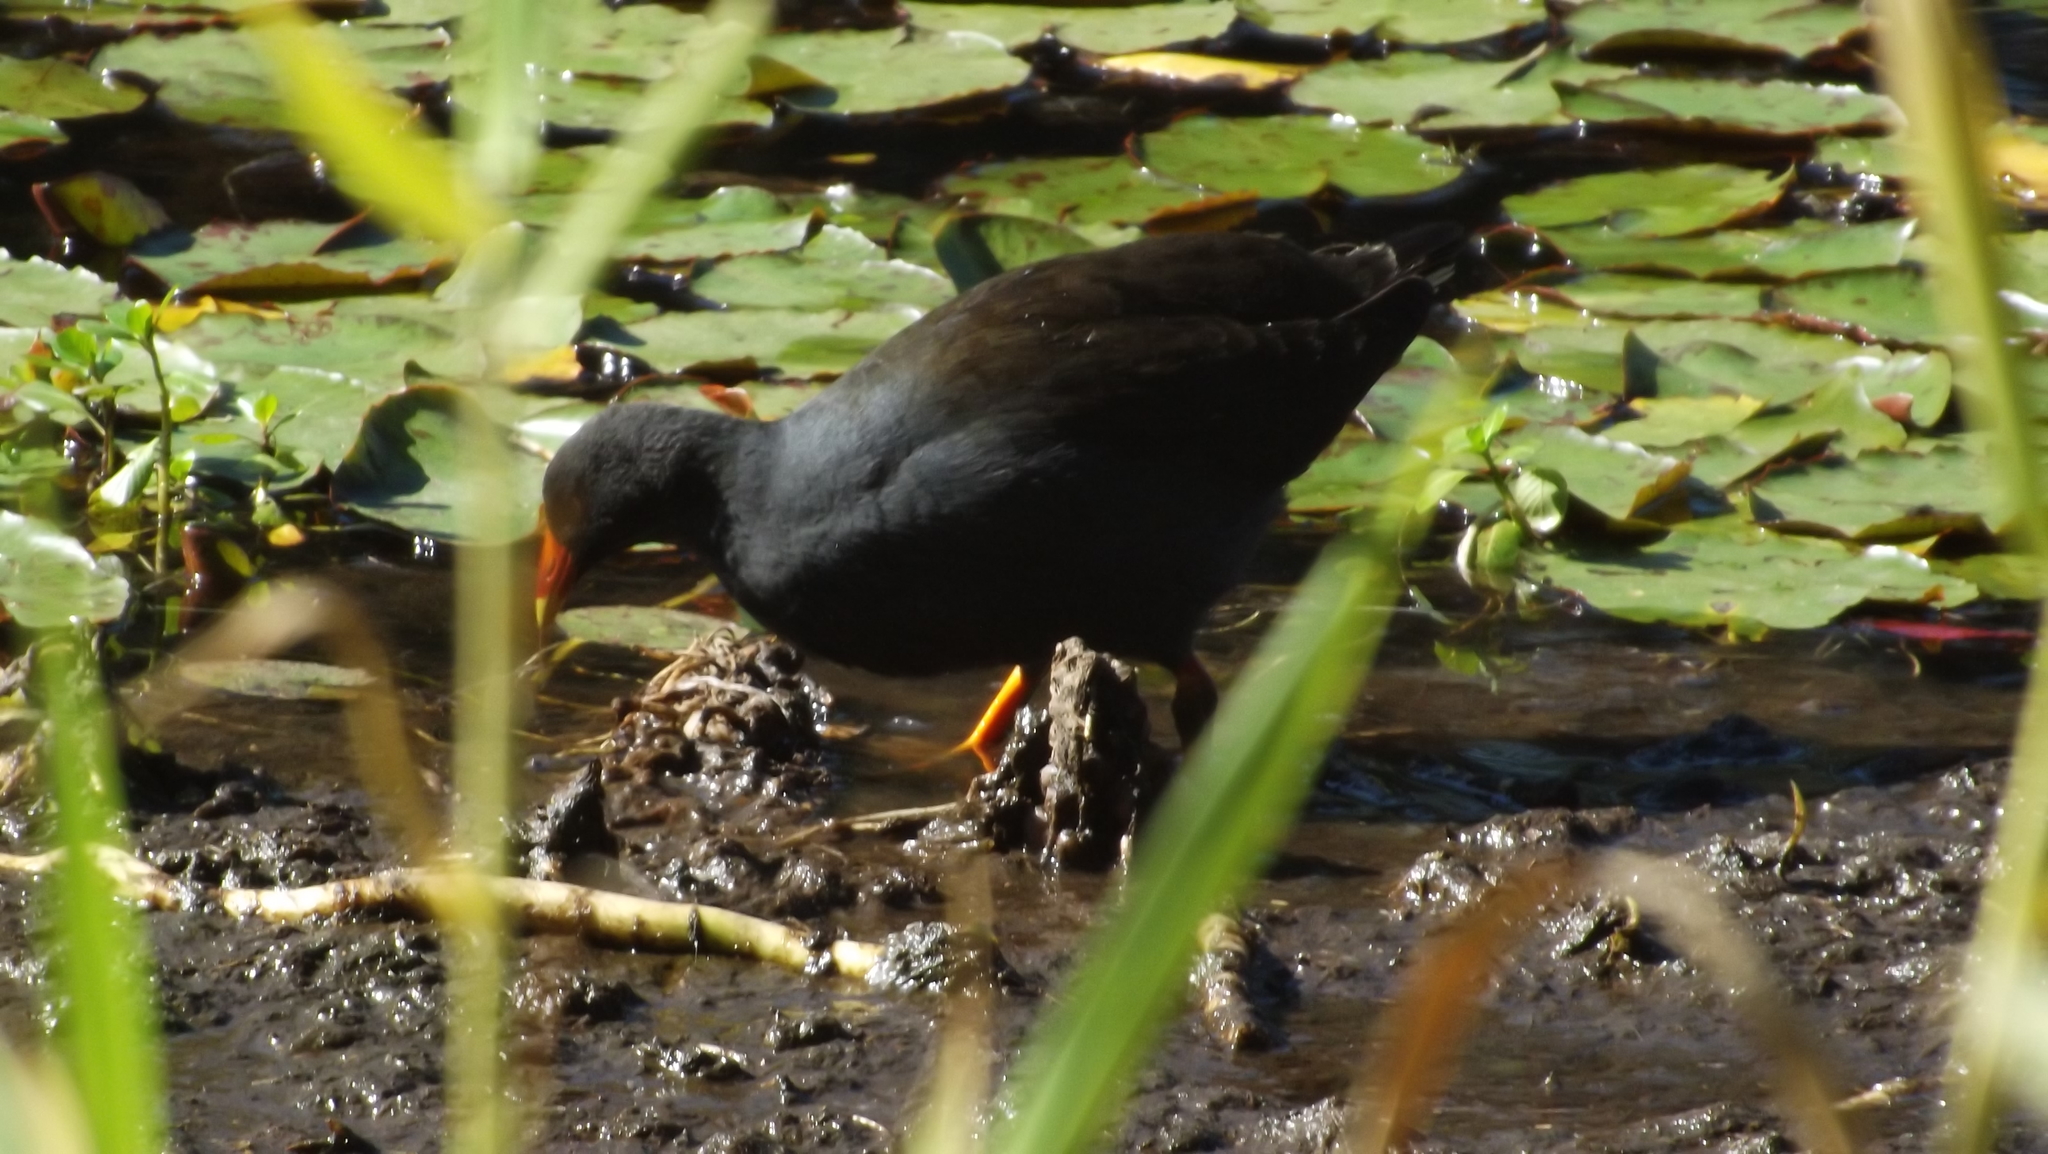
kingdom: Animalia
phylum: Chordata
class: Aves
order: Gruiformes
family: Rallidae
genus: Gallinula
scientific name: Gallinula tenebrosa
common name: Dusky moorhen
